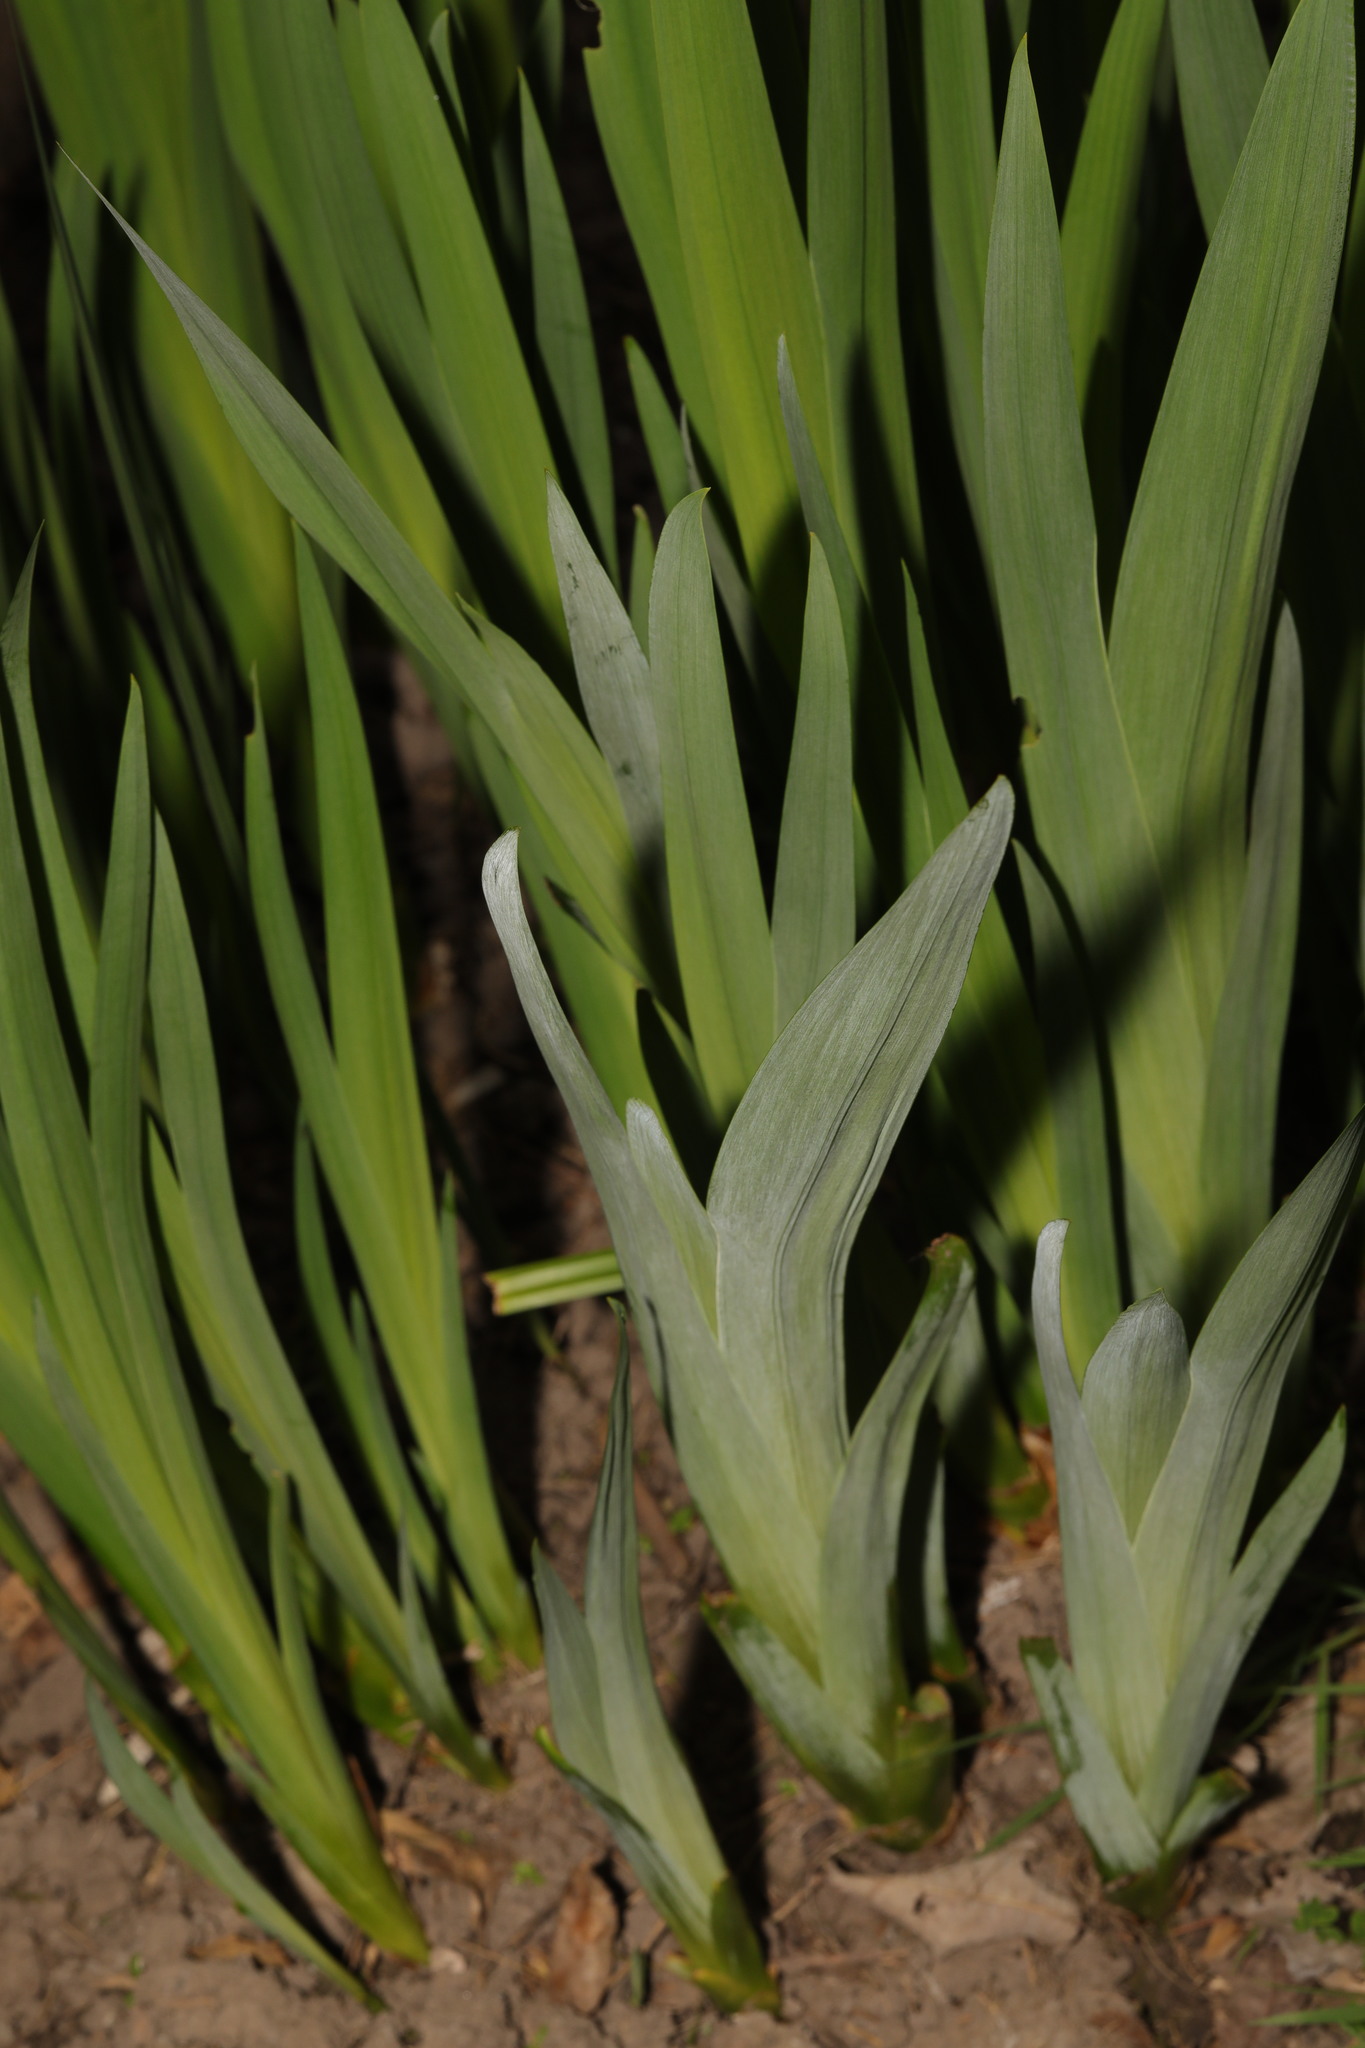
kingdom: Plantae
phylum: Tracheophyta
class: Liliopsida
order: Asparagales
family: Iridaceae
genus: Iris
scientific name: Iris pseudacorus
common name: Yellow flag
